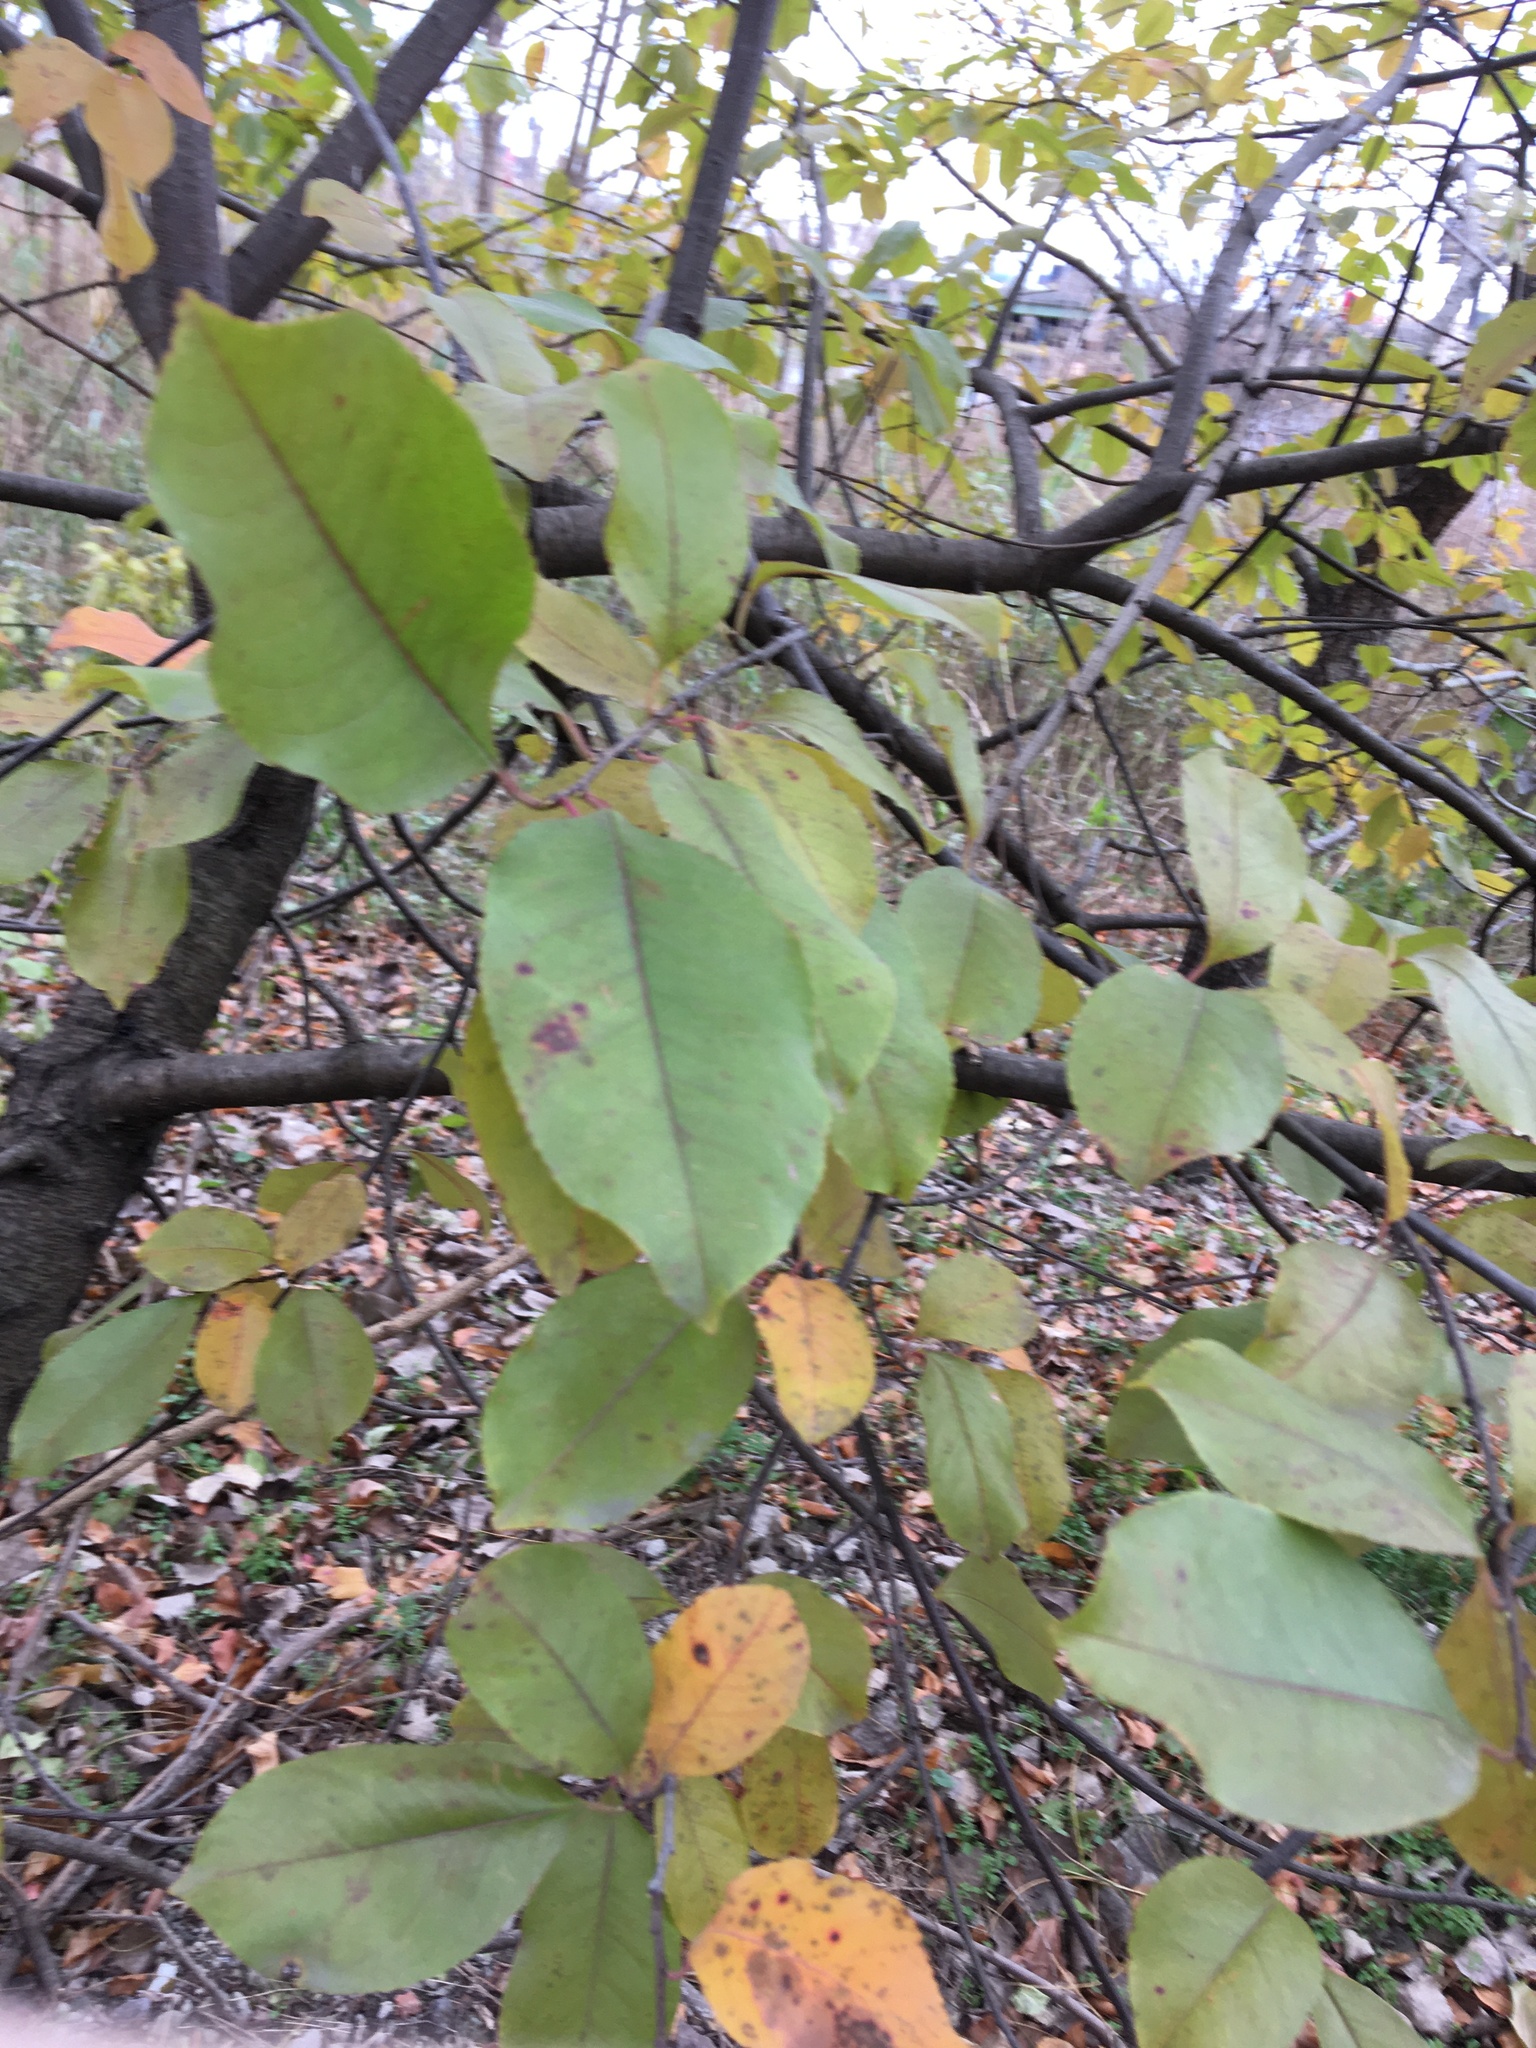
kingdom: Plantae
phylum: Tracheophyta
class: Magnoliopsida
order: Rosales
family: Rosaceae
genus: Prunus
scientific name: Prunus serotina
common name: Black cherry
